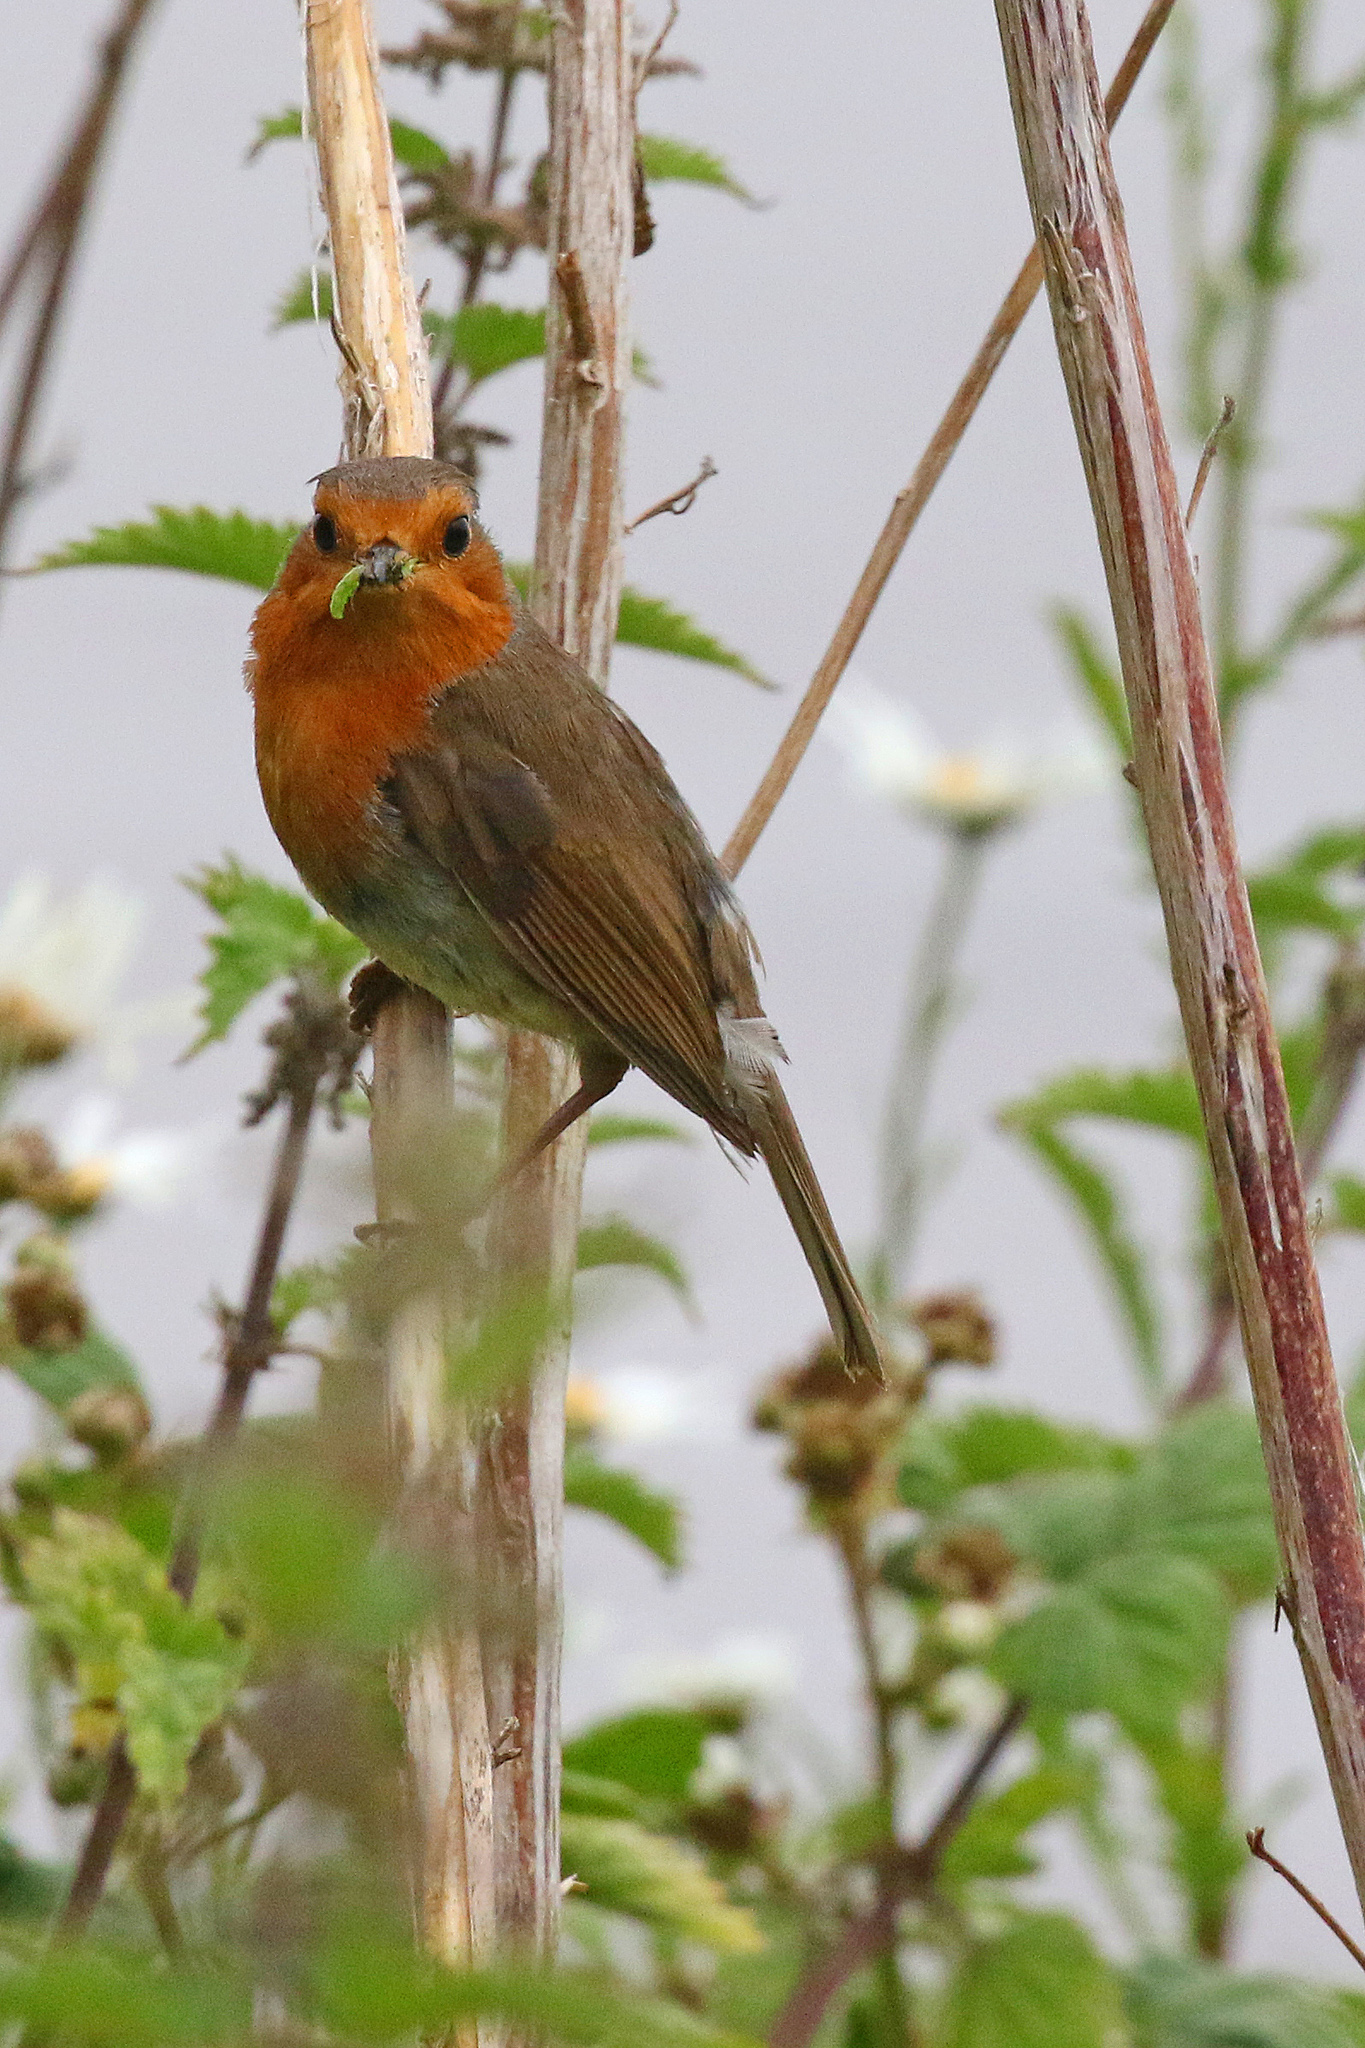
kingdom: Animalia
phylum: Chordata
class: Aves
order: Passeriformes
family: Muscicapidae
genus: Erithacus
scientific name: Erithacus rubecula
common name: European robin
